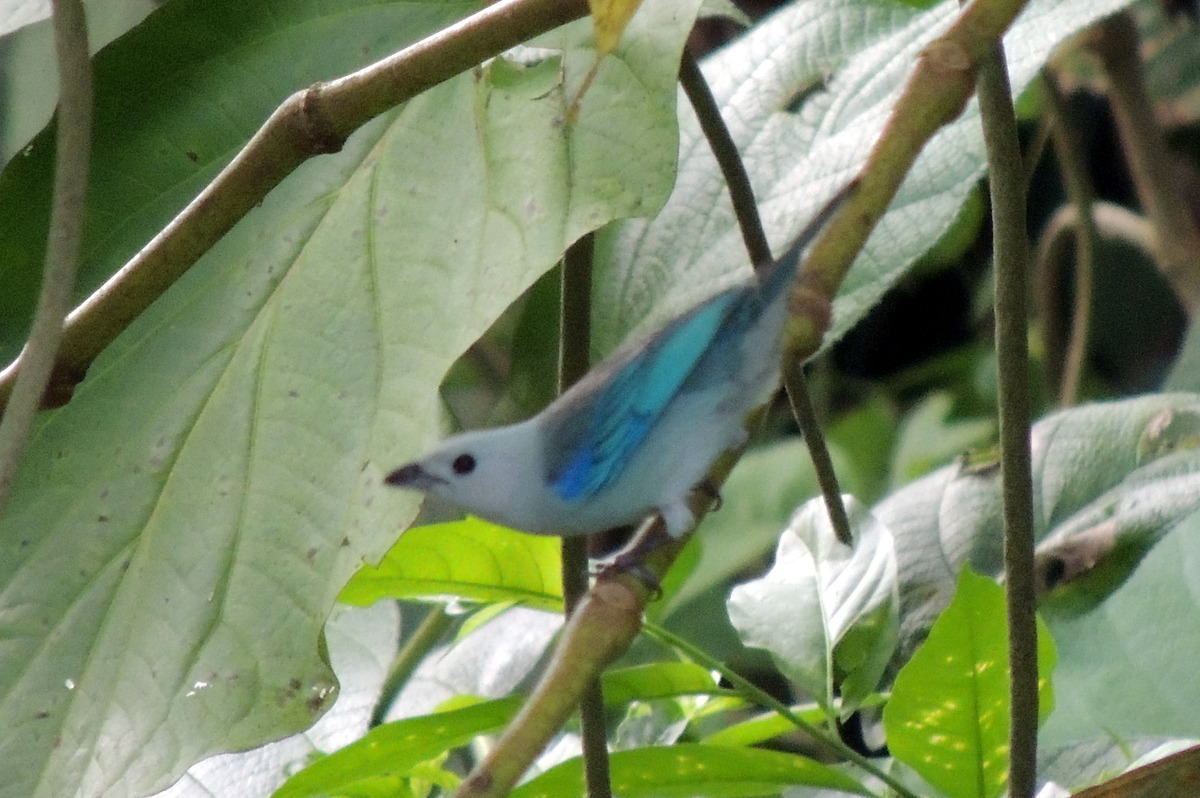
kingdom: Animalia
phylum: Chordata
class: Aves
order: Passeriformes
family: Thraupidae
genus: Thraupis
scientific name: Thraupis episcopus
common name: Blue-grey tanager
